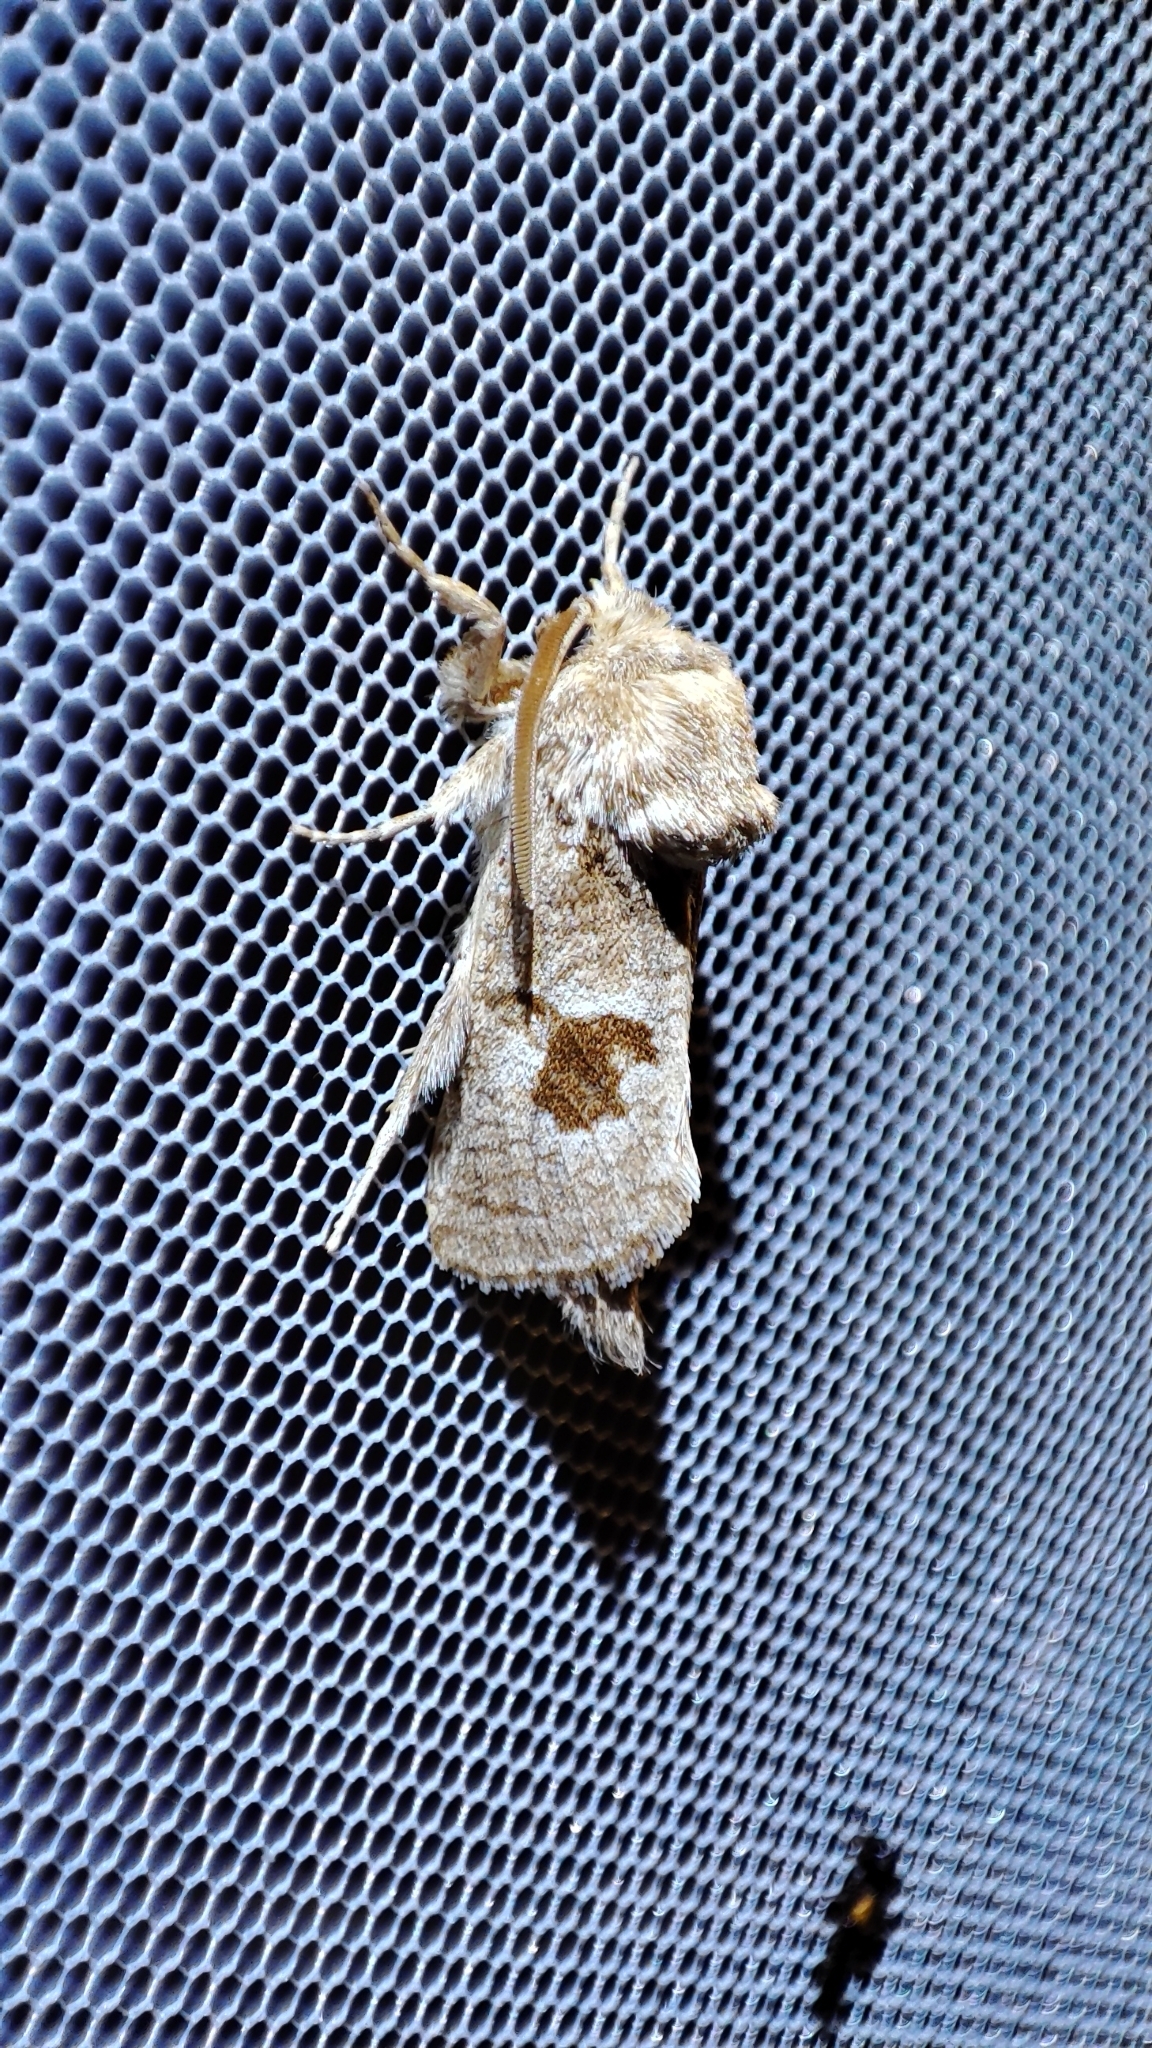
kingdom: Animalia
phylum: Arthropoda
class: Insecta
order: Lepidoptera
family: Cossidae
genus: Paracossulus
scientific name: Paracossulus thrips
